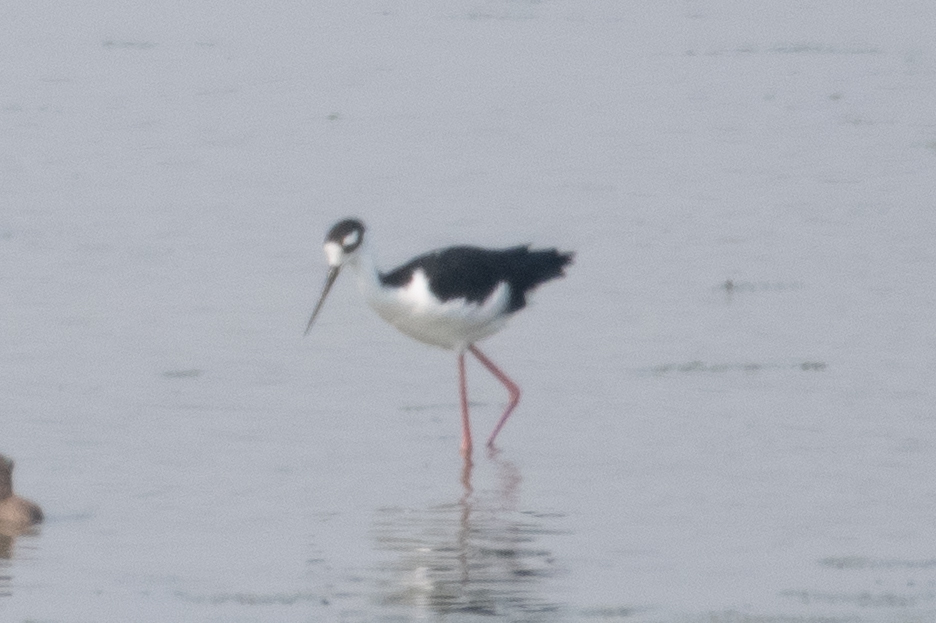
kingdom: Animalia
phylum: Chordata
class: Aves
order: Charadriiformes
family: Recurvirostridae
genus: Himantopus
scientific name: Himantopus mexicanus
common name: Black-necked stilt
